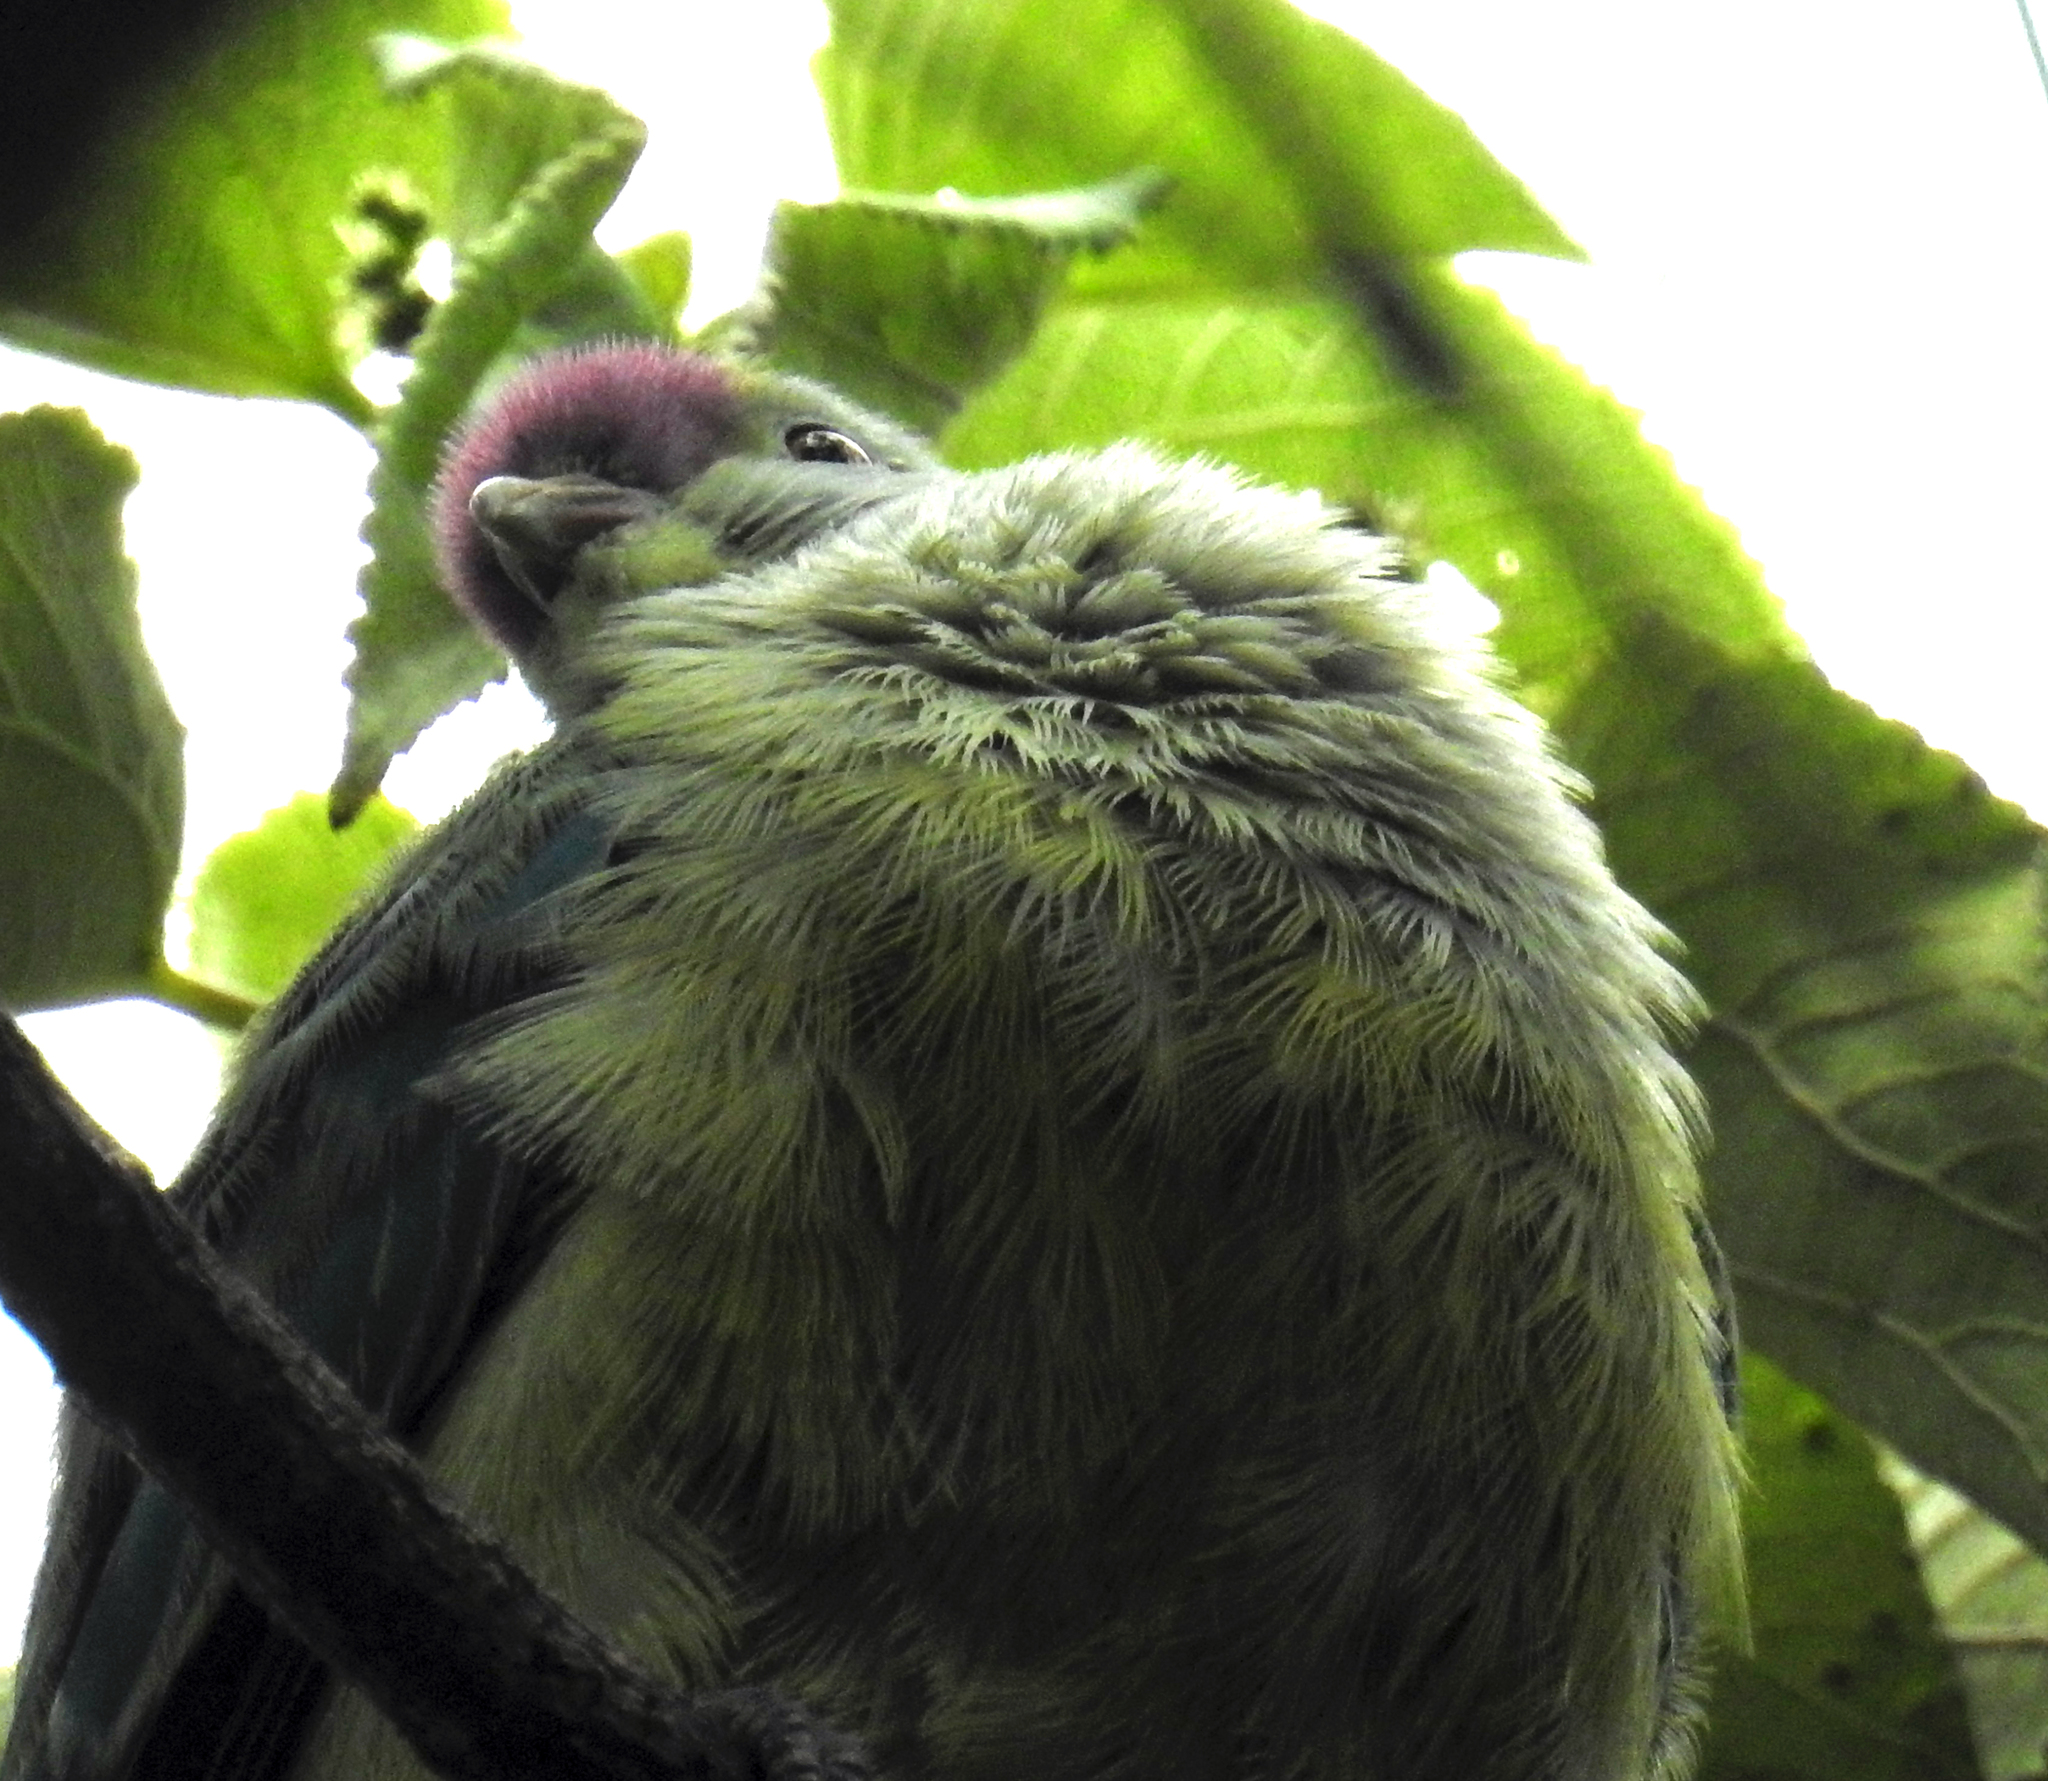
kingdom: Animalia
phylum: Chordata
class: Aves
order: Columbiformes
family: Columbidae
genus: Ptilinopus
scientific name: Ptilinopus rarotongensis
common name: Lilac-crowned fruit dove
